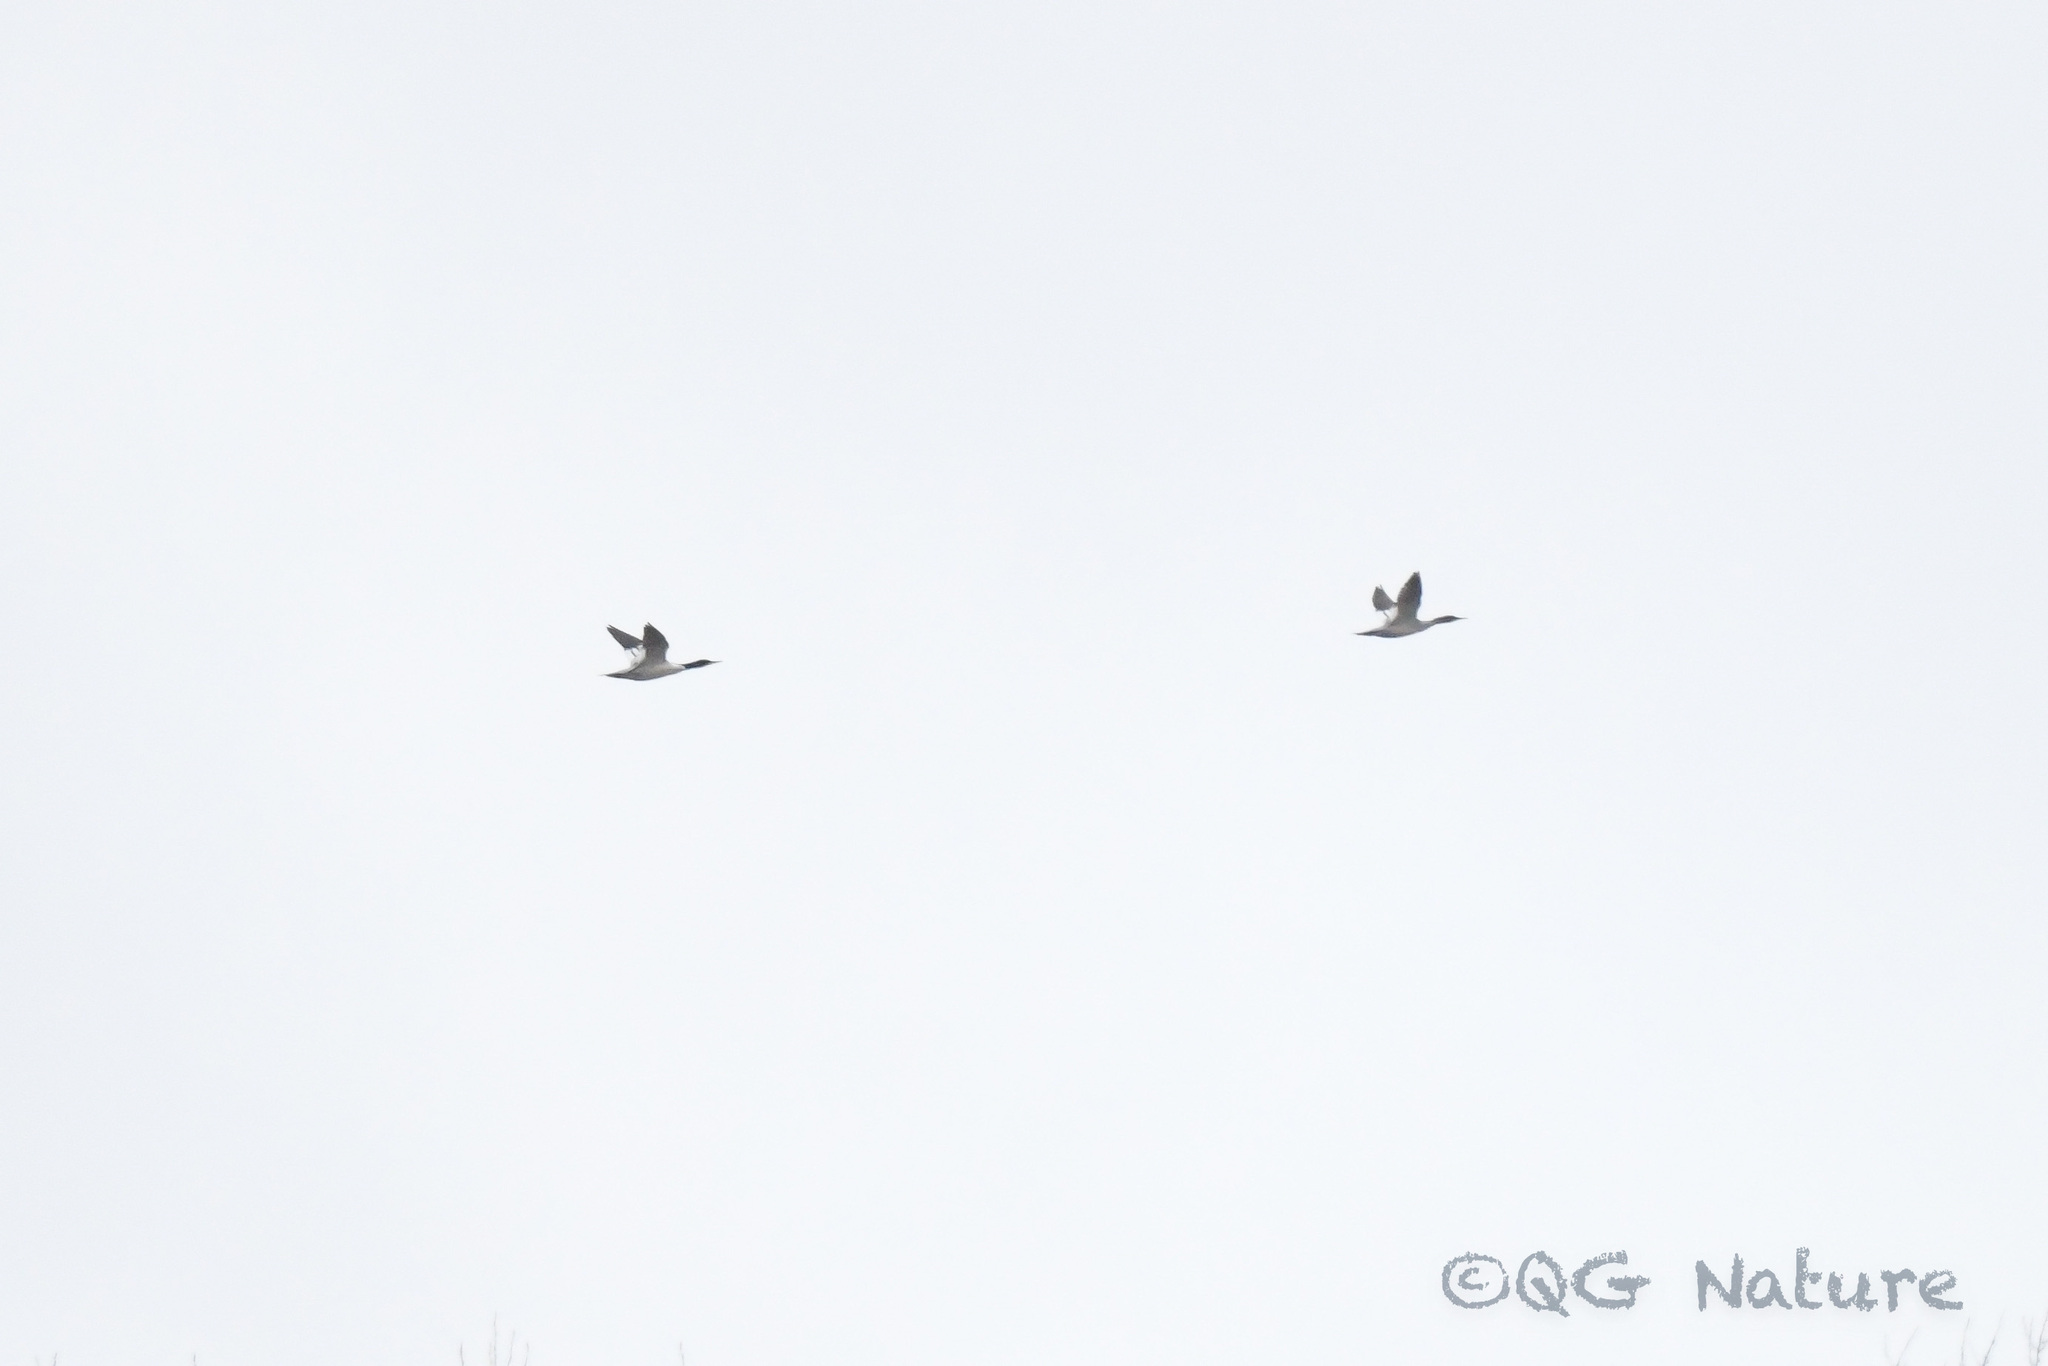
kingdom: Animalia
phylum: Chordata
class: Aves
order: Anseriformes
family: Anatidae
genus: Mergus
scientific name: Mergus squamatus
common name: Scaly-sided merganser
